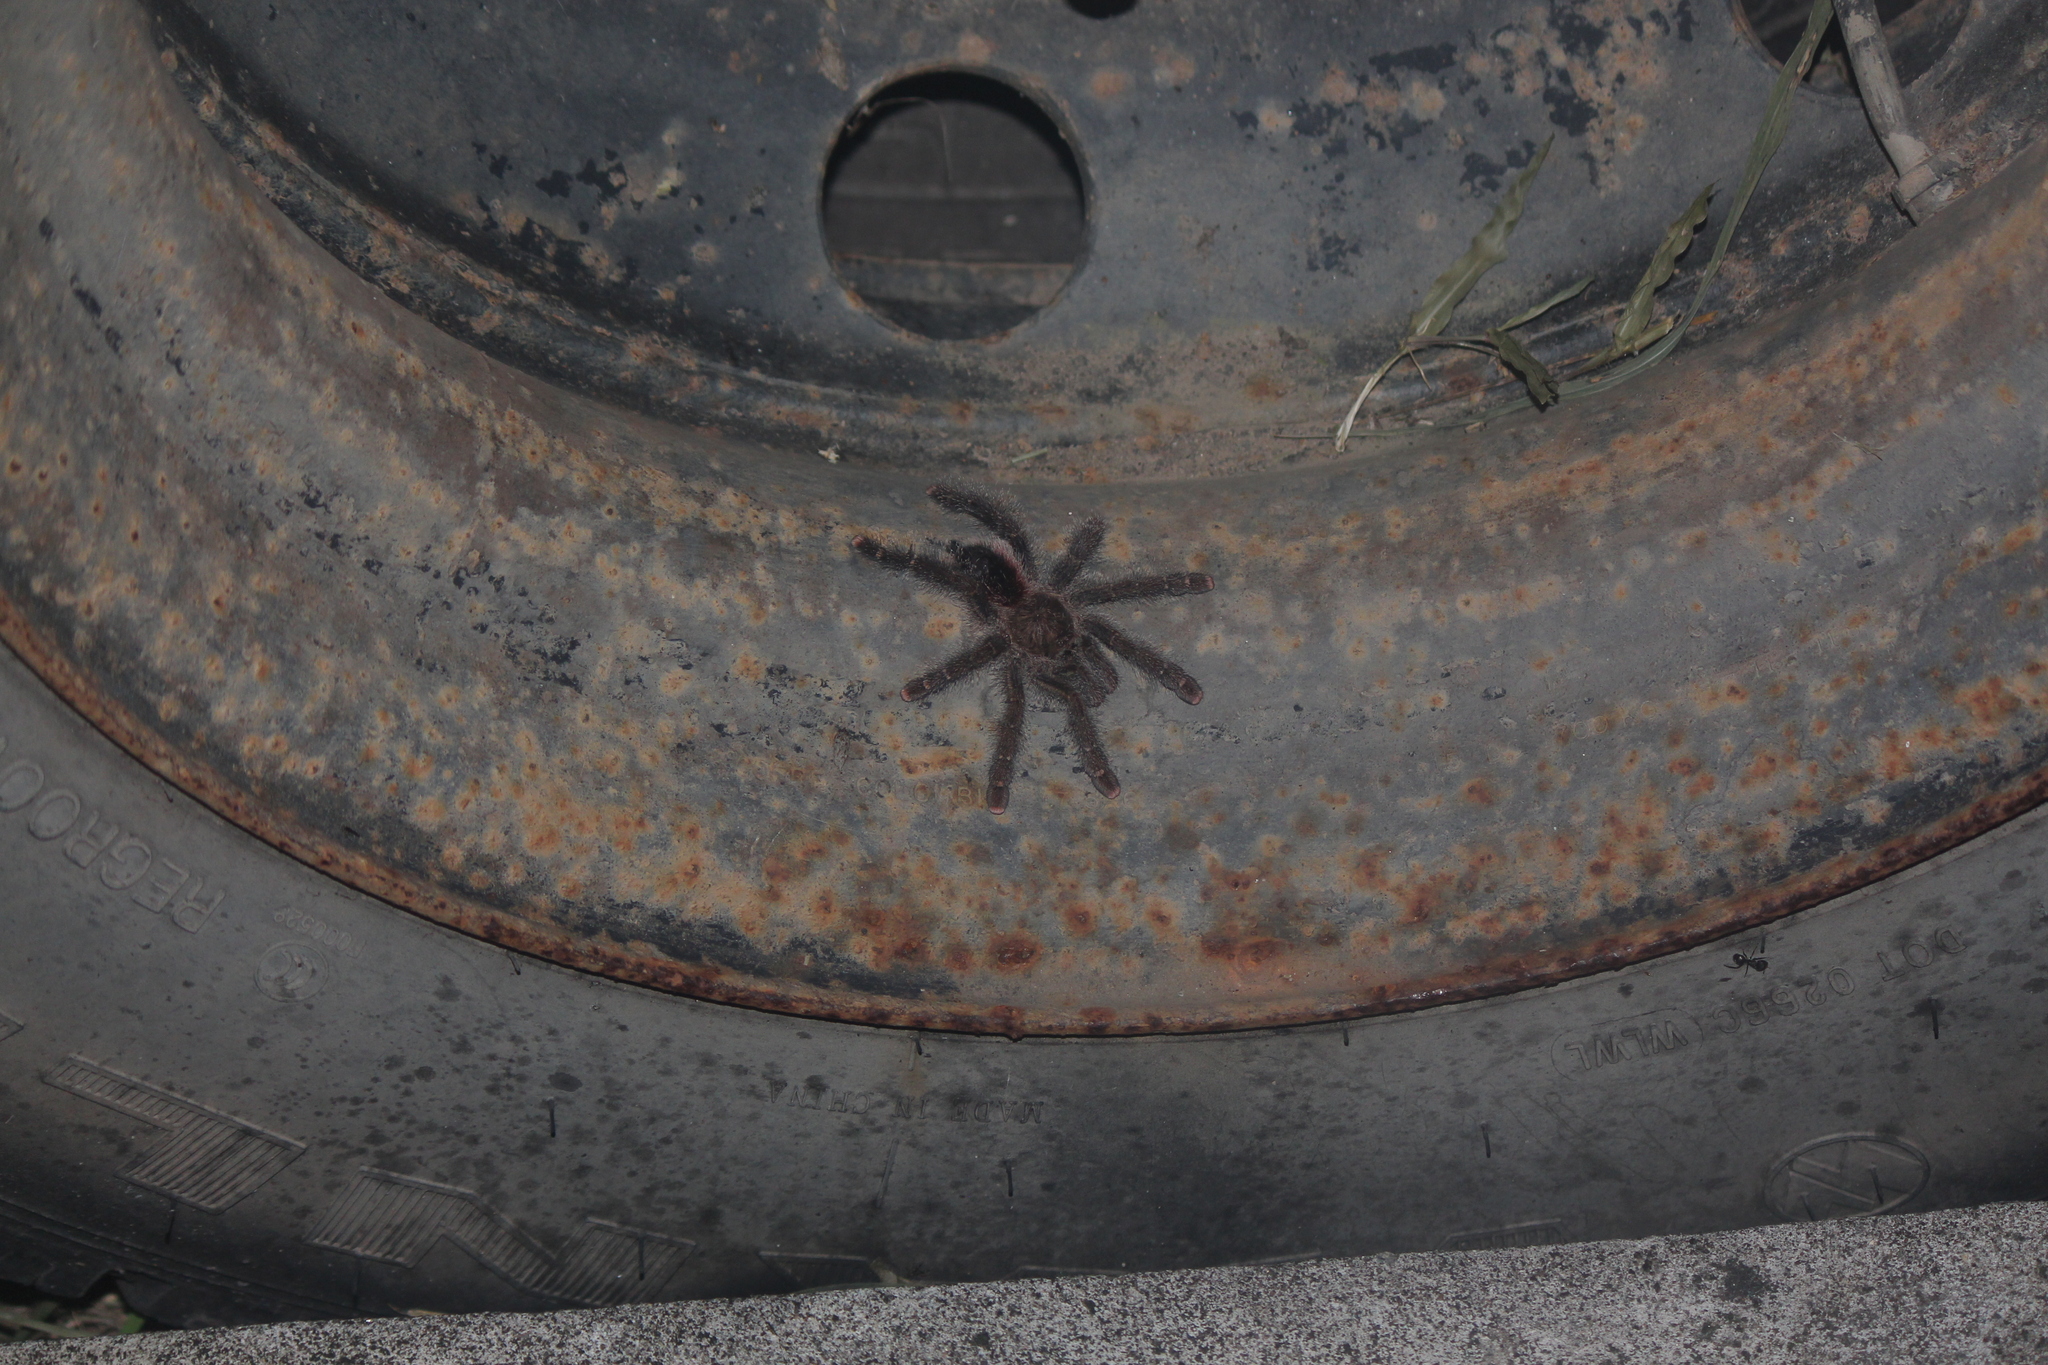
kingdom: Animalia
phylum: Arthropoda
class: Arachnida
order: Araneae
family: Theraphosidae
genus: Avicularia
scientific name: Avicularia juruensis
